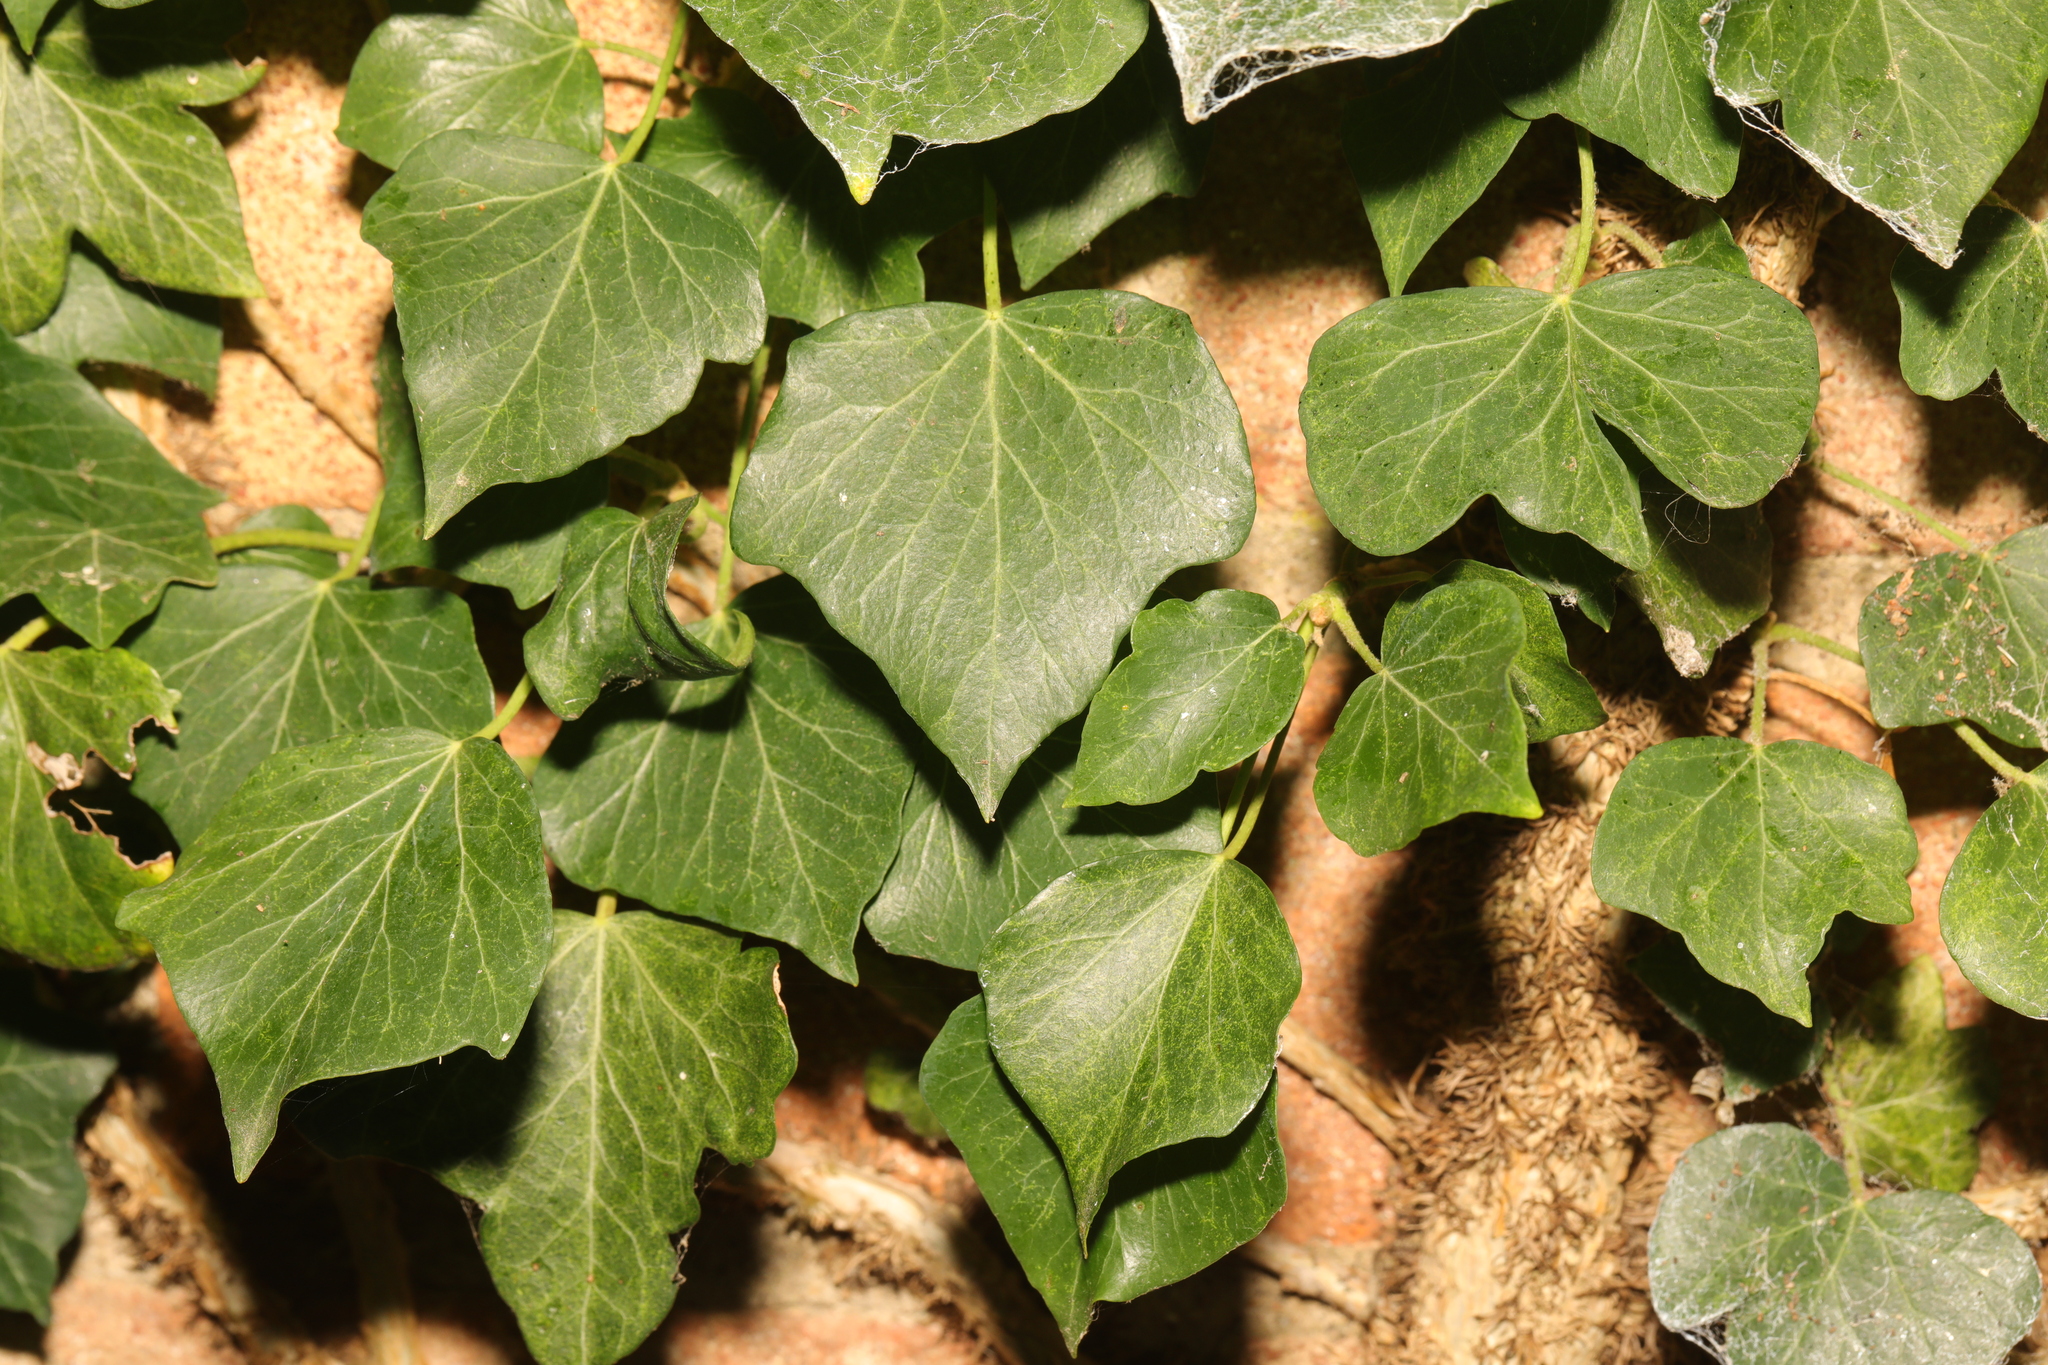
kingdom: Plantae
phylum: Tracheophyta
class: Magnoliopsida
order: Apiales
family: Araliaceae
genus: Hedera
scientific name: Hedera helix
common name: Ivy
